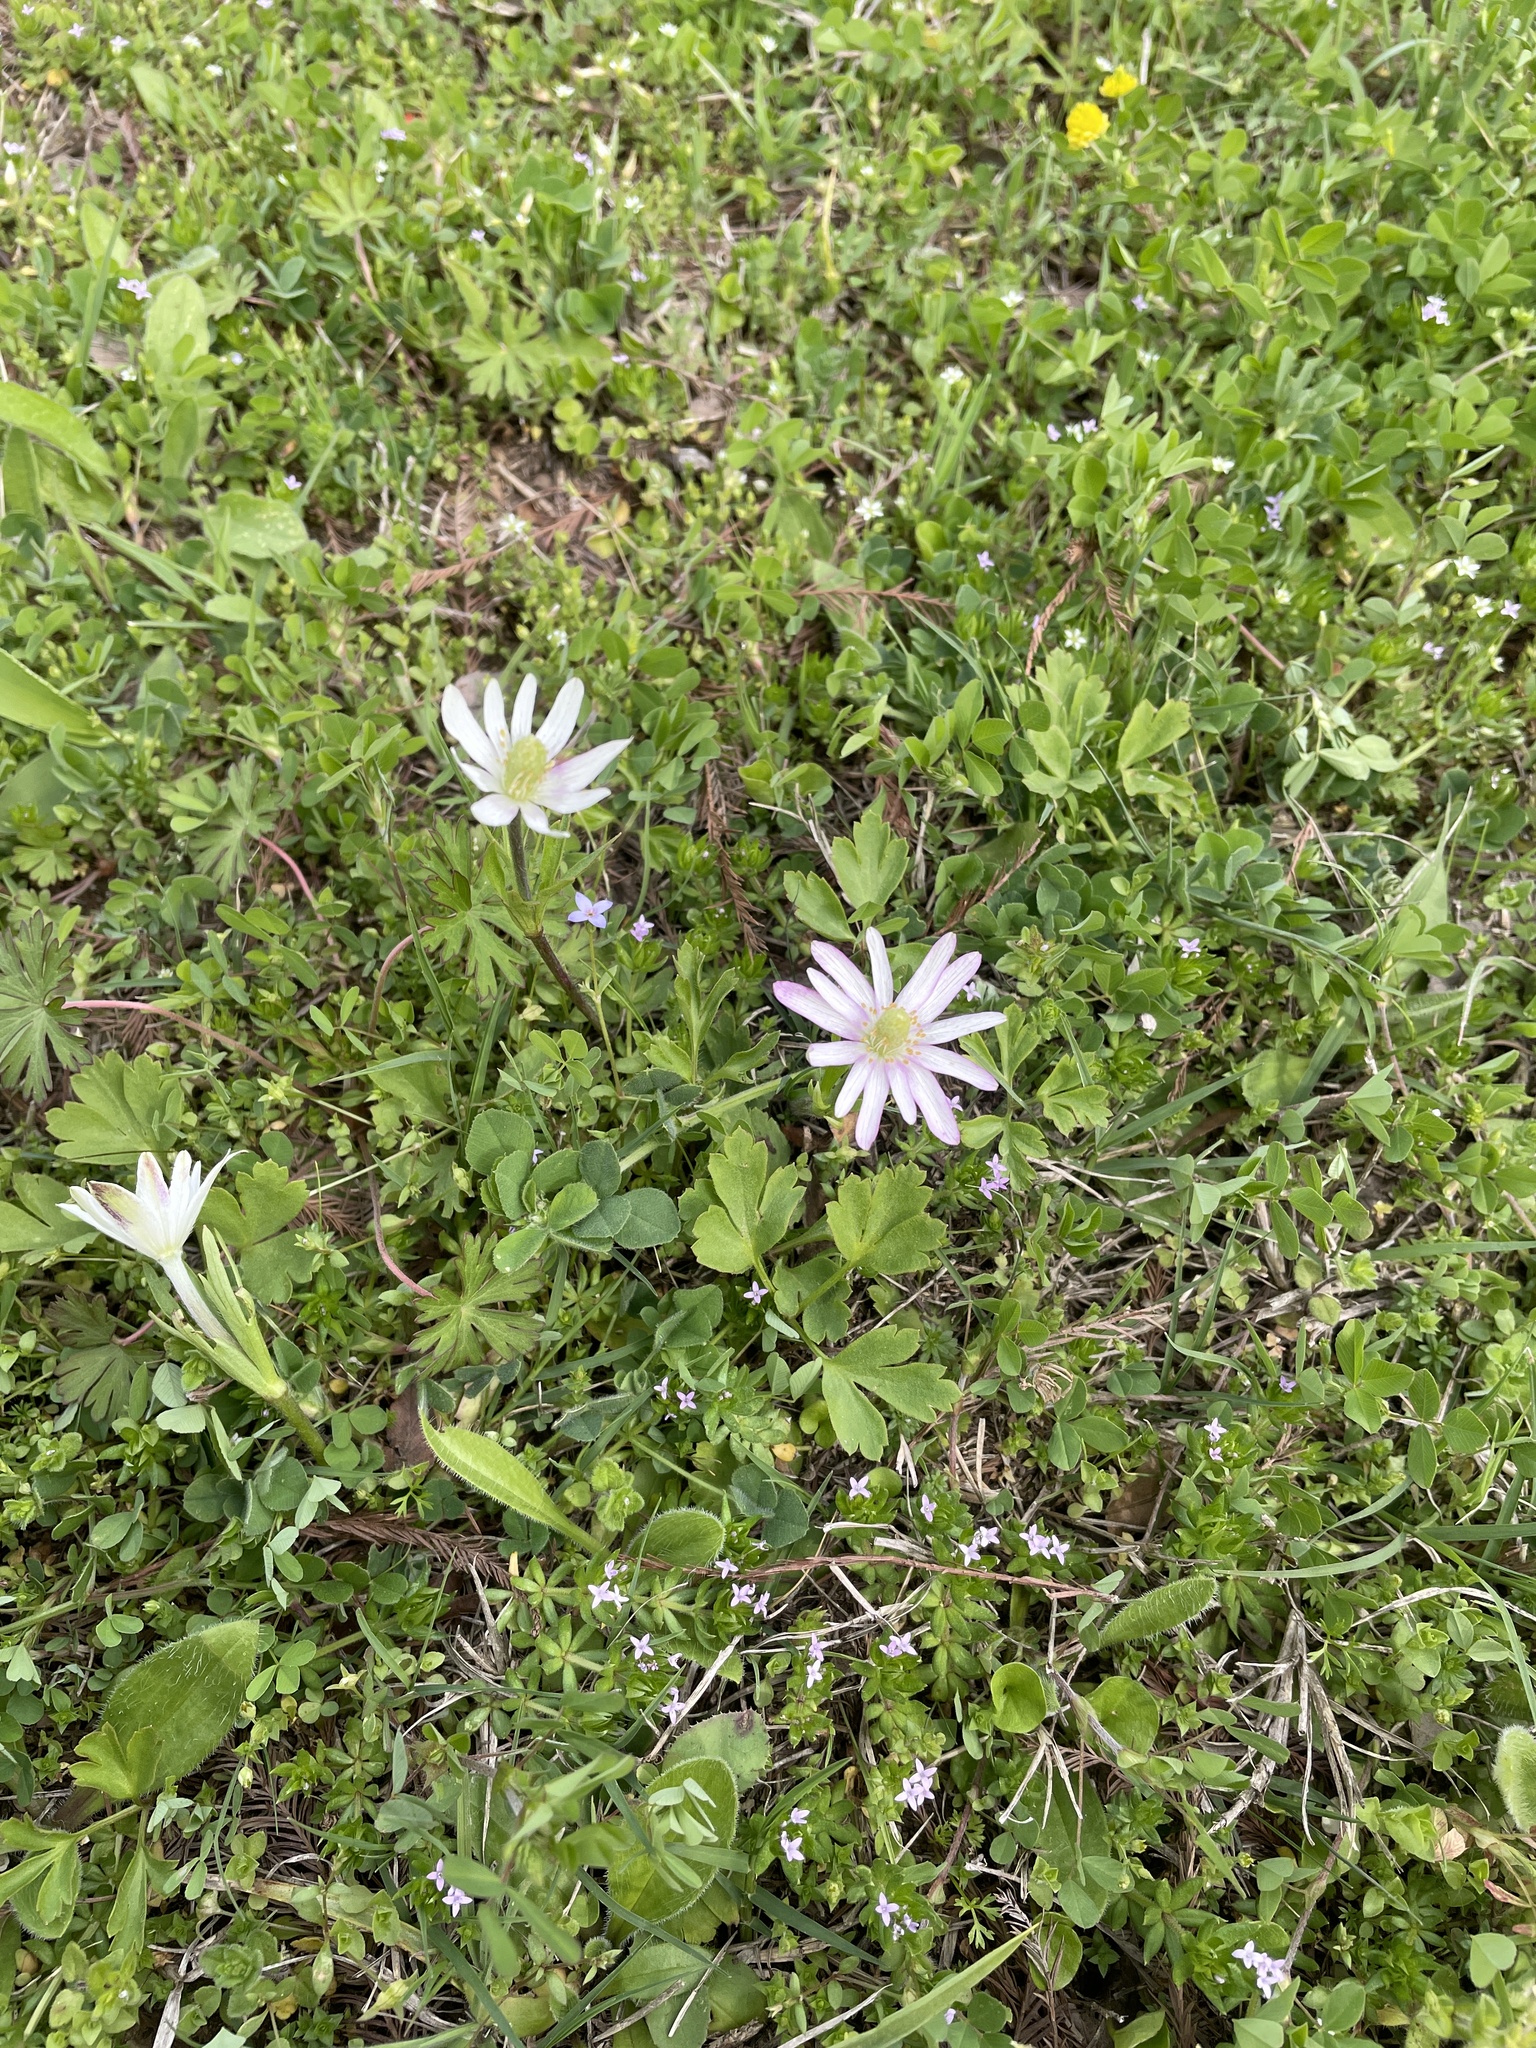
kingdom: Plantae
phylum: Tracheophyta
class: Magnoliopsida
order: Ranunculales
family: Ranunculaceae
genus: Anemone
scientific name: Anemone berlandieri
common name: Ten-petal anemone
